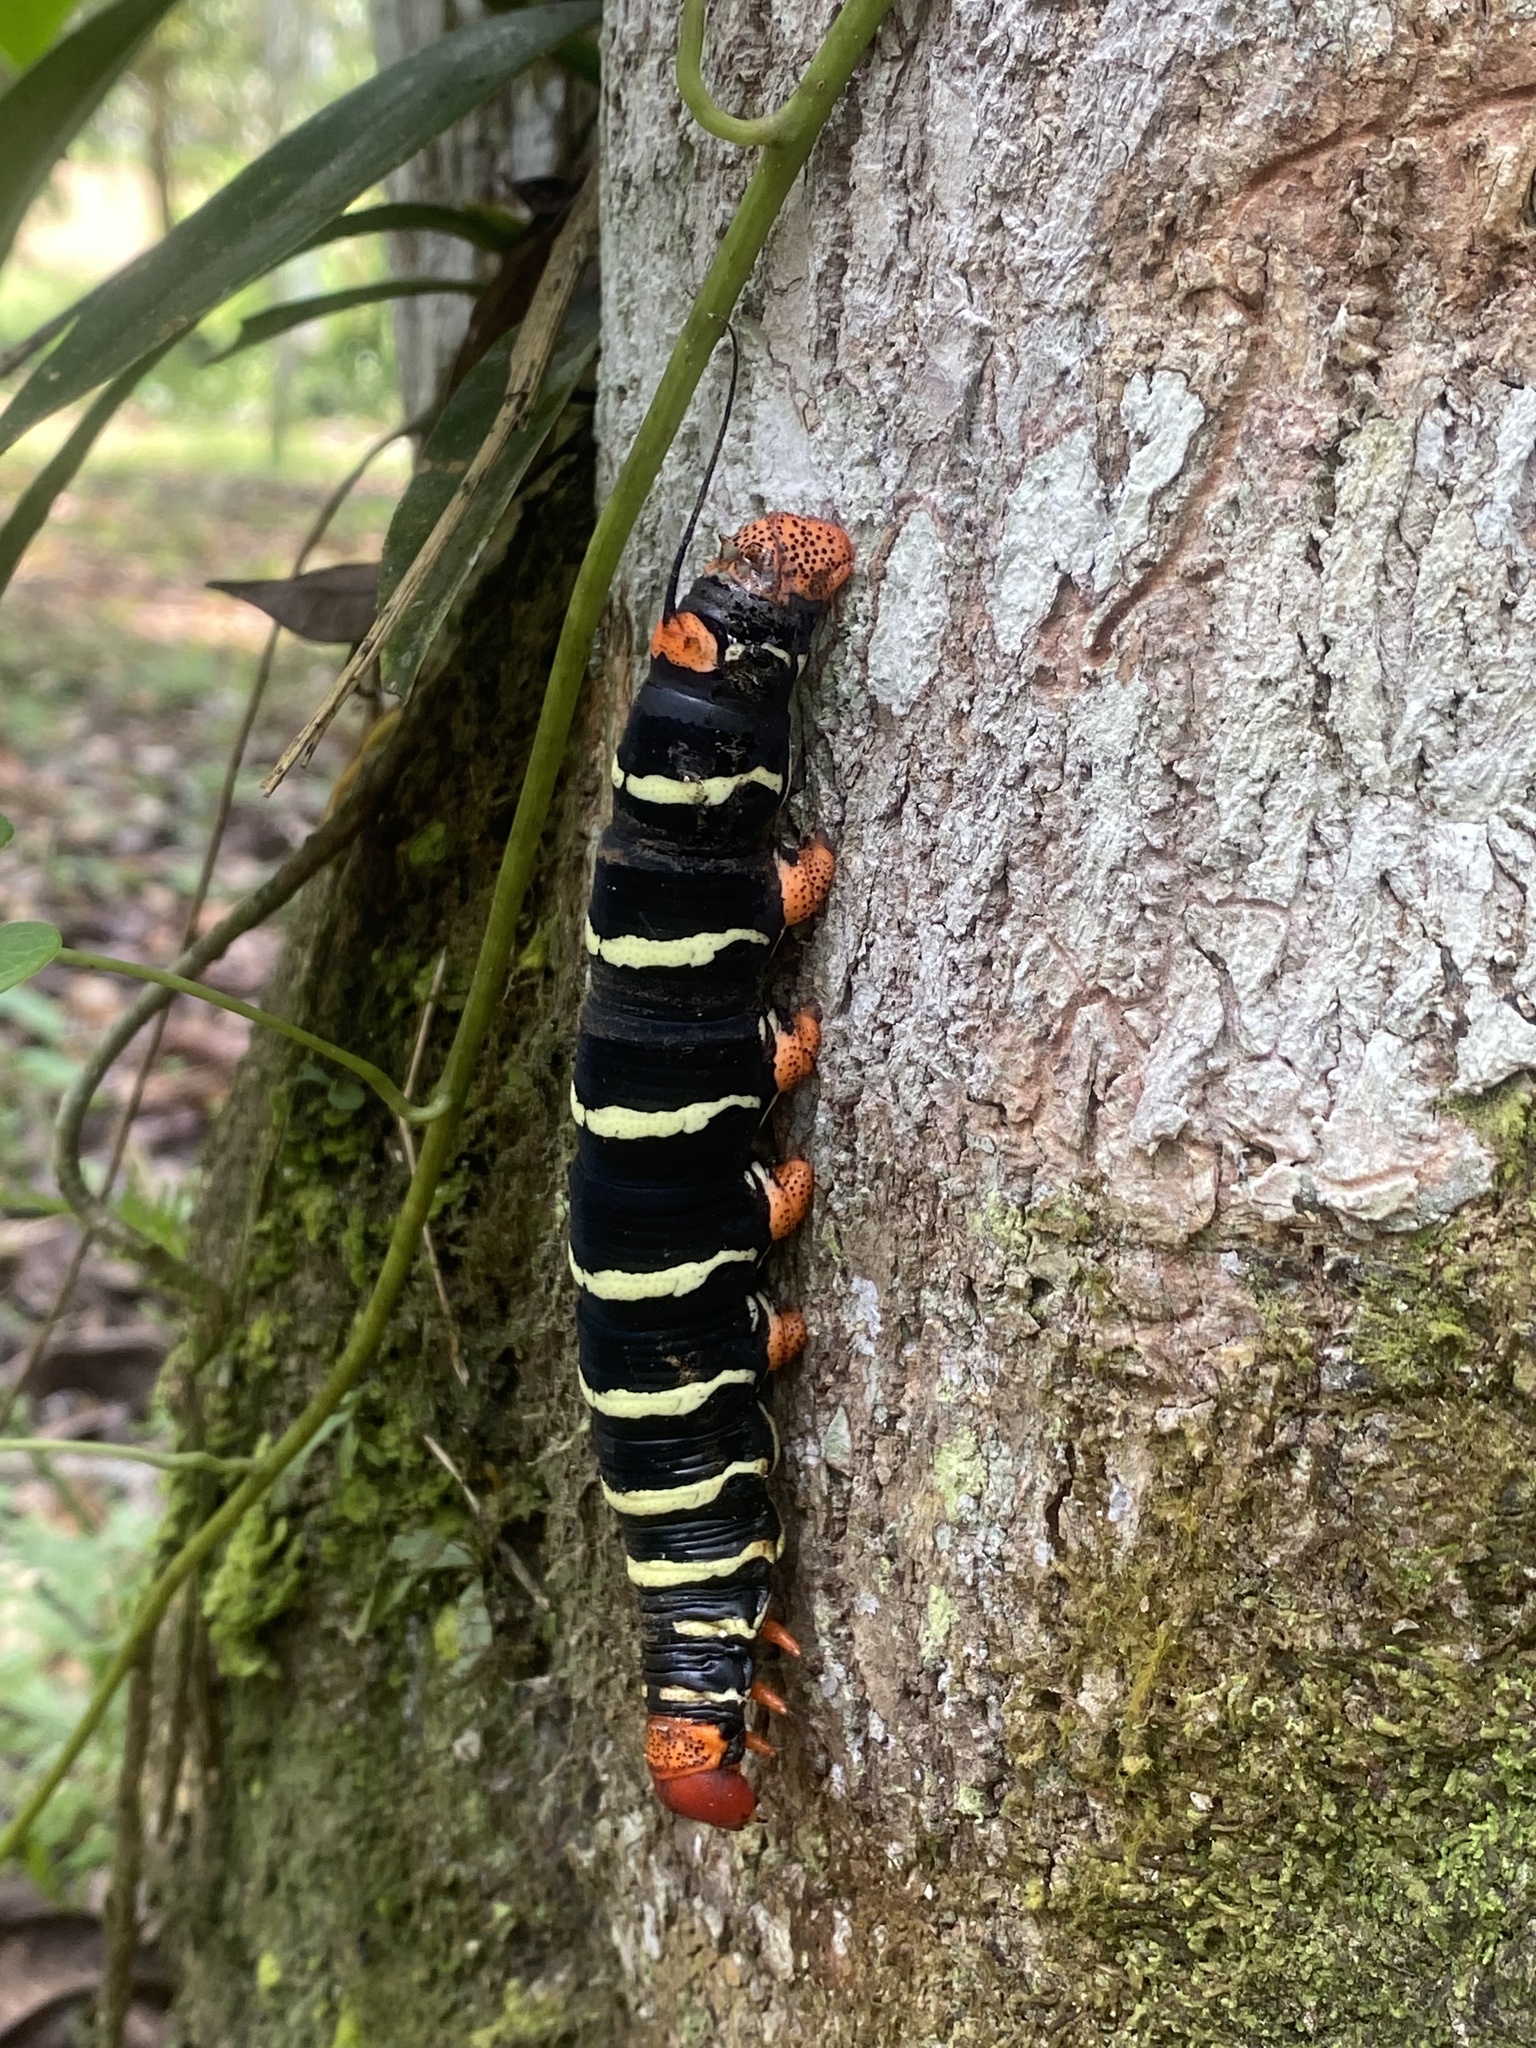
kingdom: Animalia
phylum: Arthropoda
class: Insecta
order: Lepidoptera
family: Sphingidae
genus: Pseudosphinx
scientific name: Pseudosphinx tetrio
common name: Tetrio sphinx
